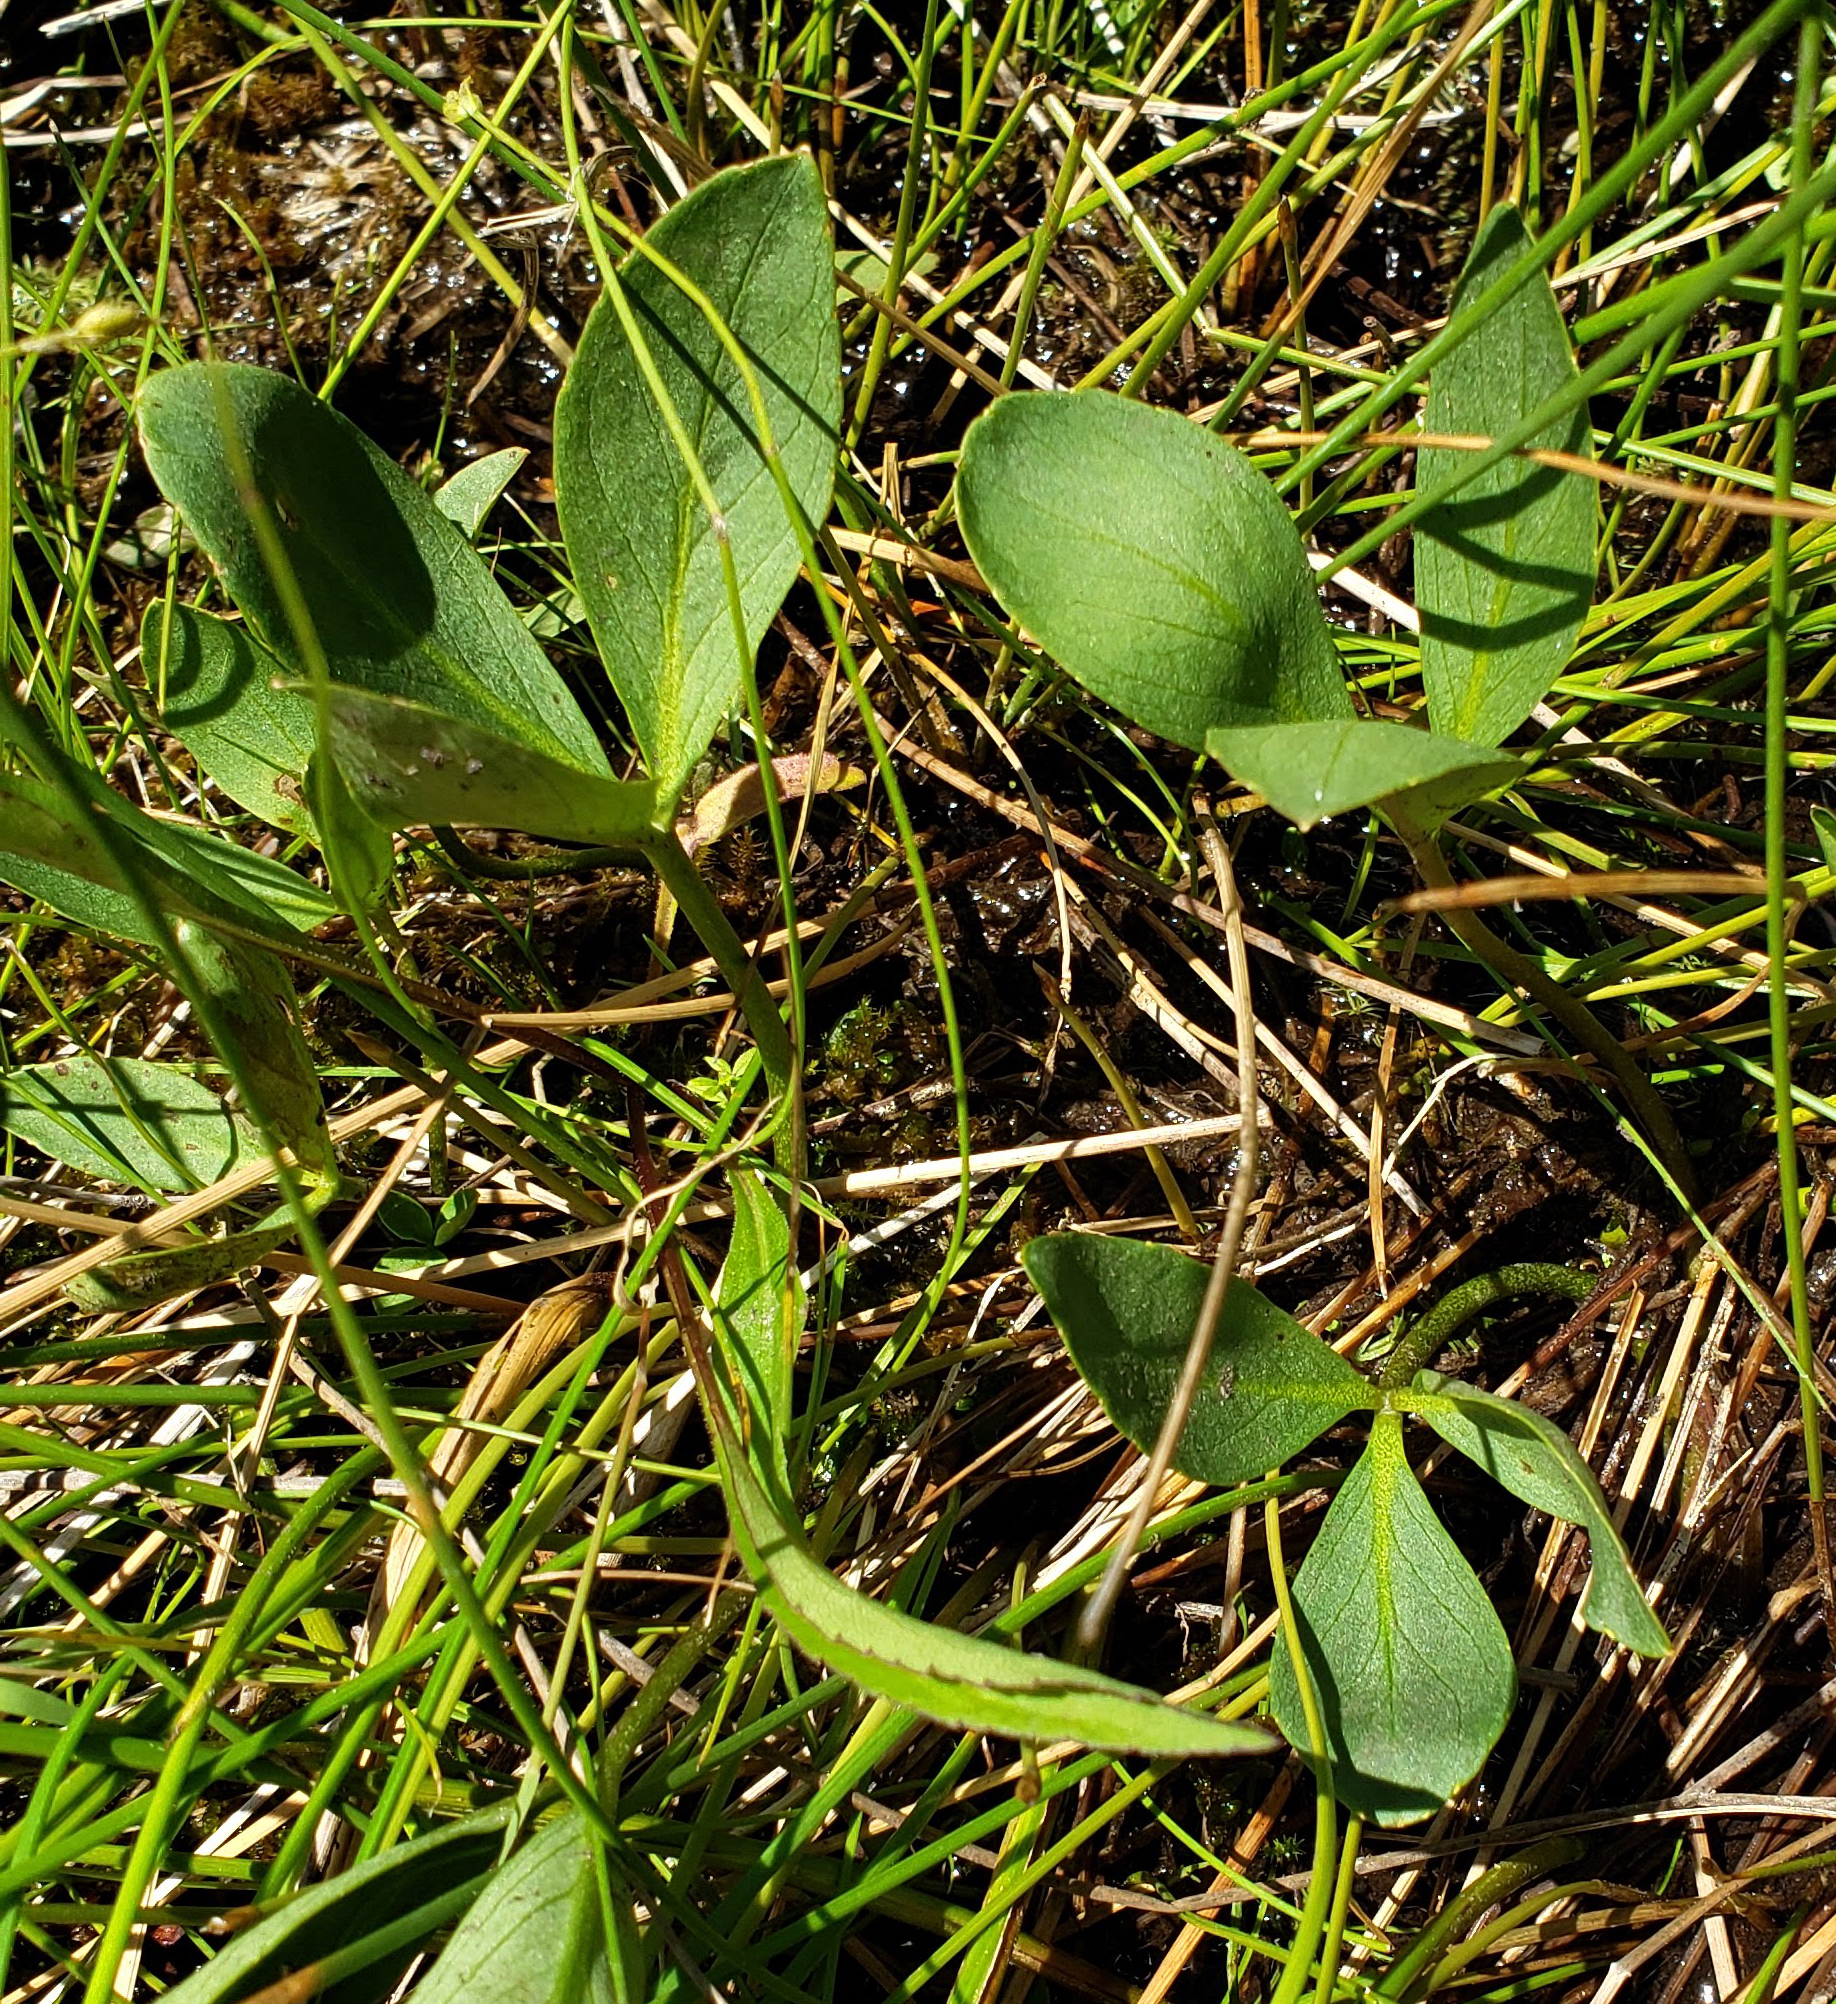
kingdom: Plantae
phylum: Tracheophyta
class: Magnoliopsida
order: Asterales
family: Menyanthaceae
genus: Menyanthes
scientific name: Menyanthes trifoliata
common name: Bogbean
